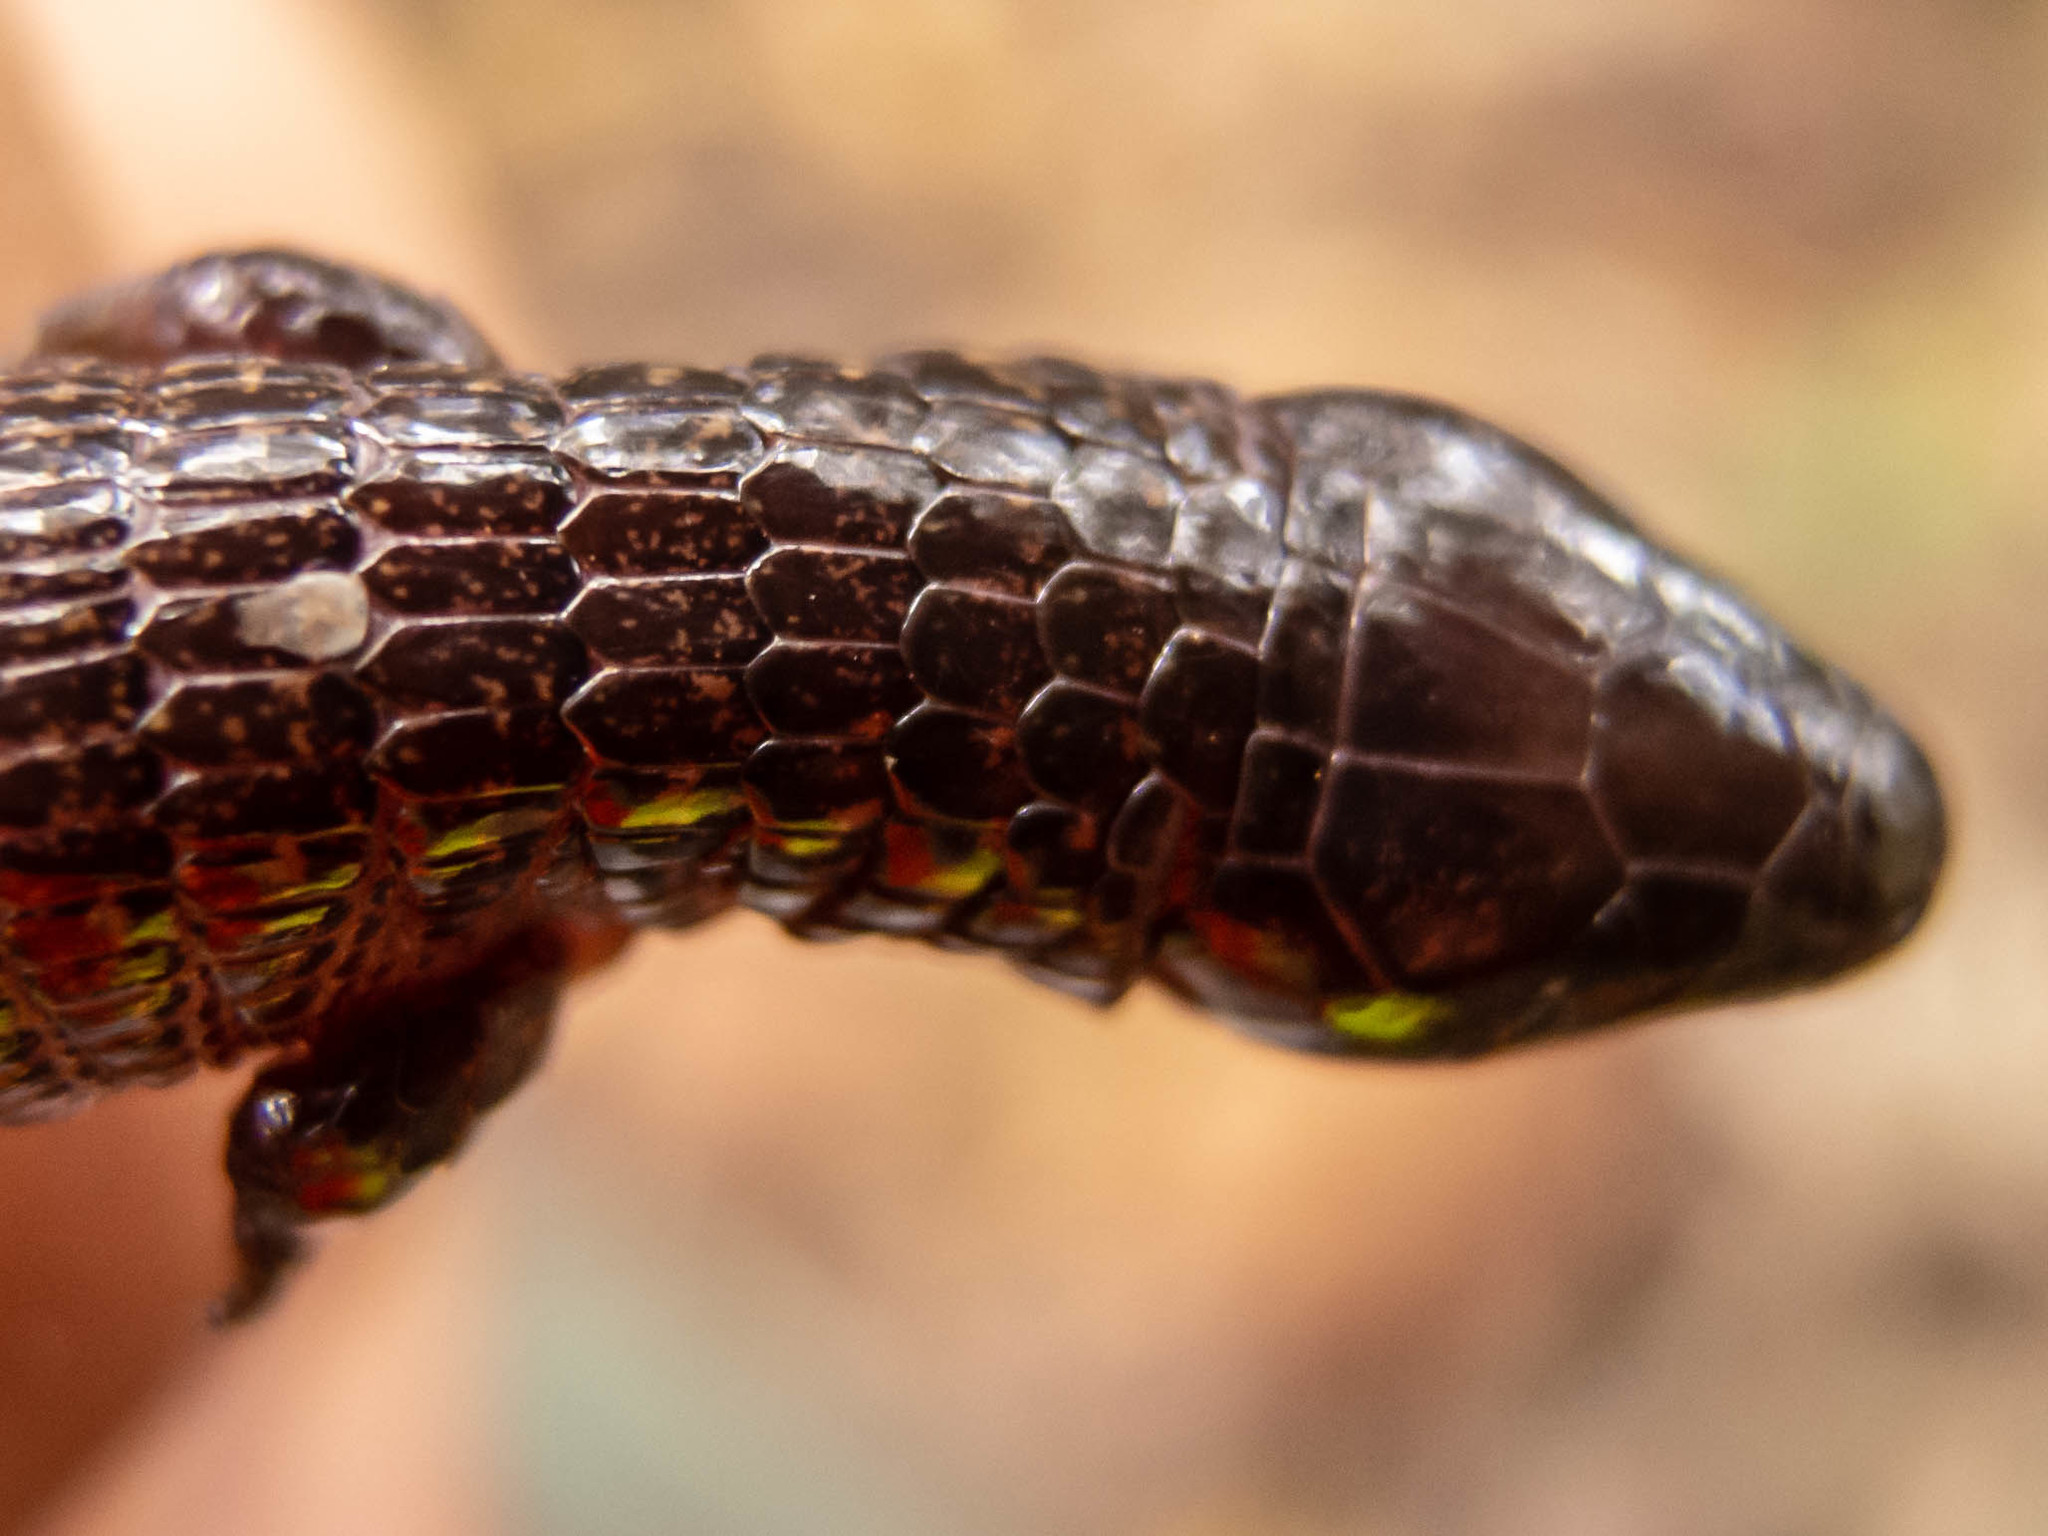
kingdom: Animalia
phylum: Chordata
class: Squamata
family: Gymnophthalmidae
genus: Dryadosaura
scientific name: Dryadosaura nordestina
